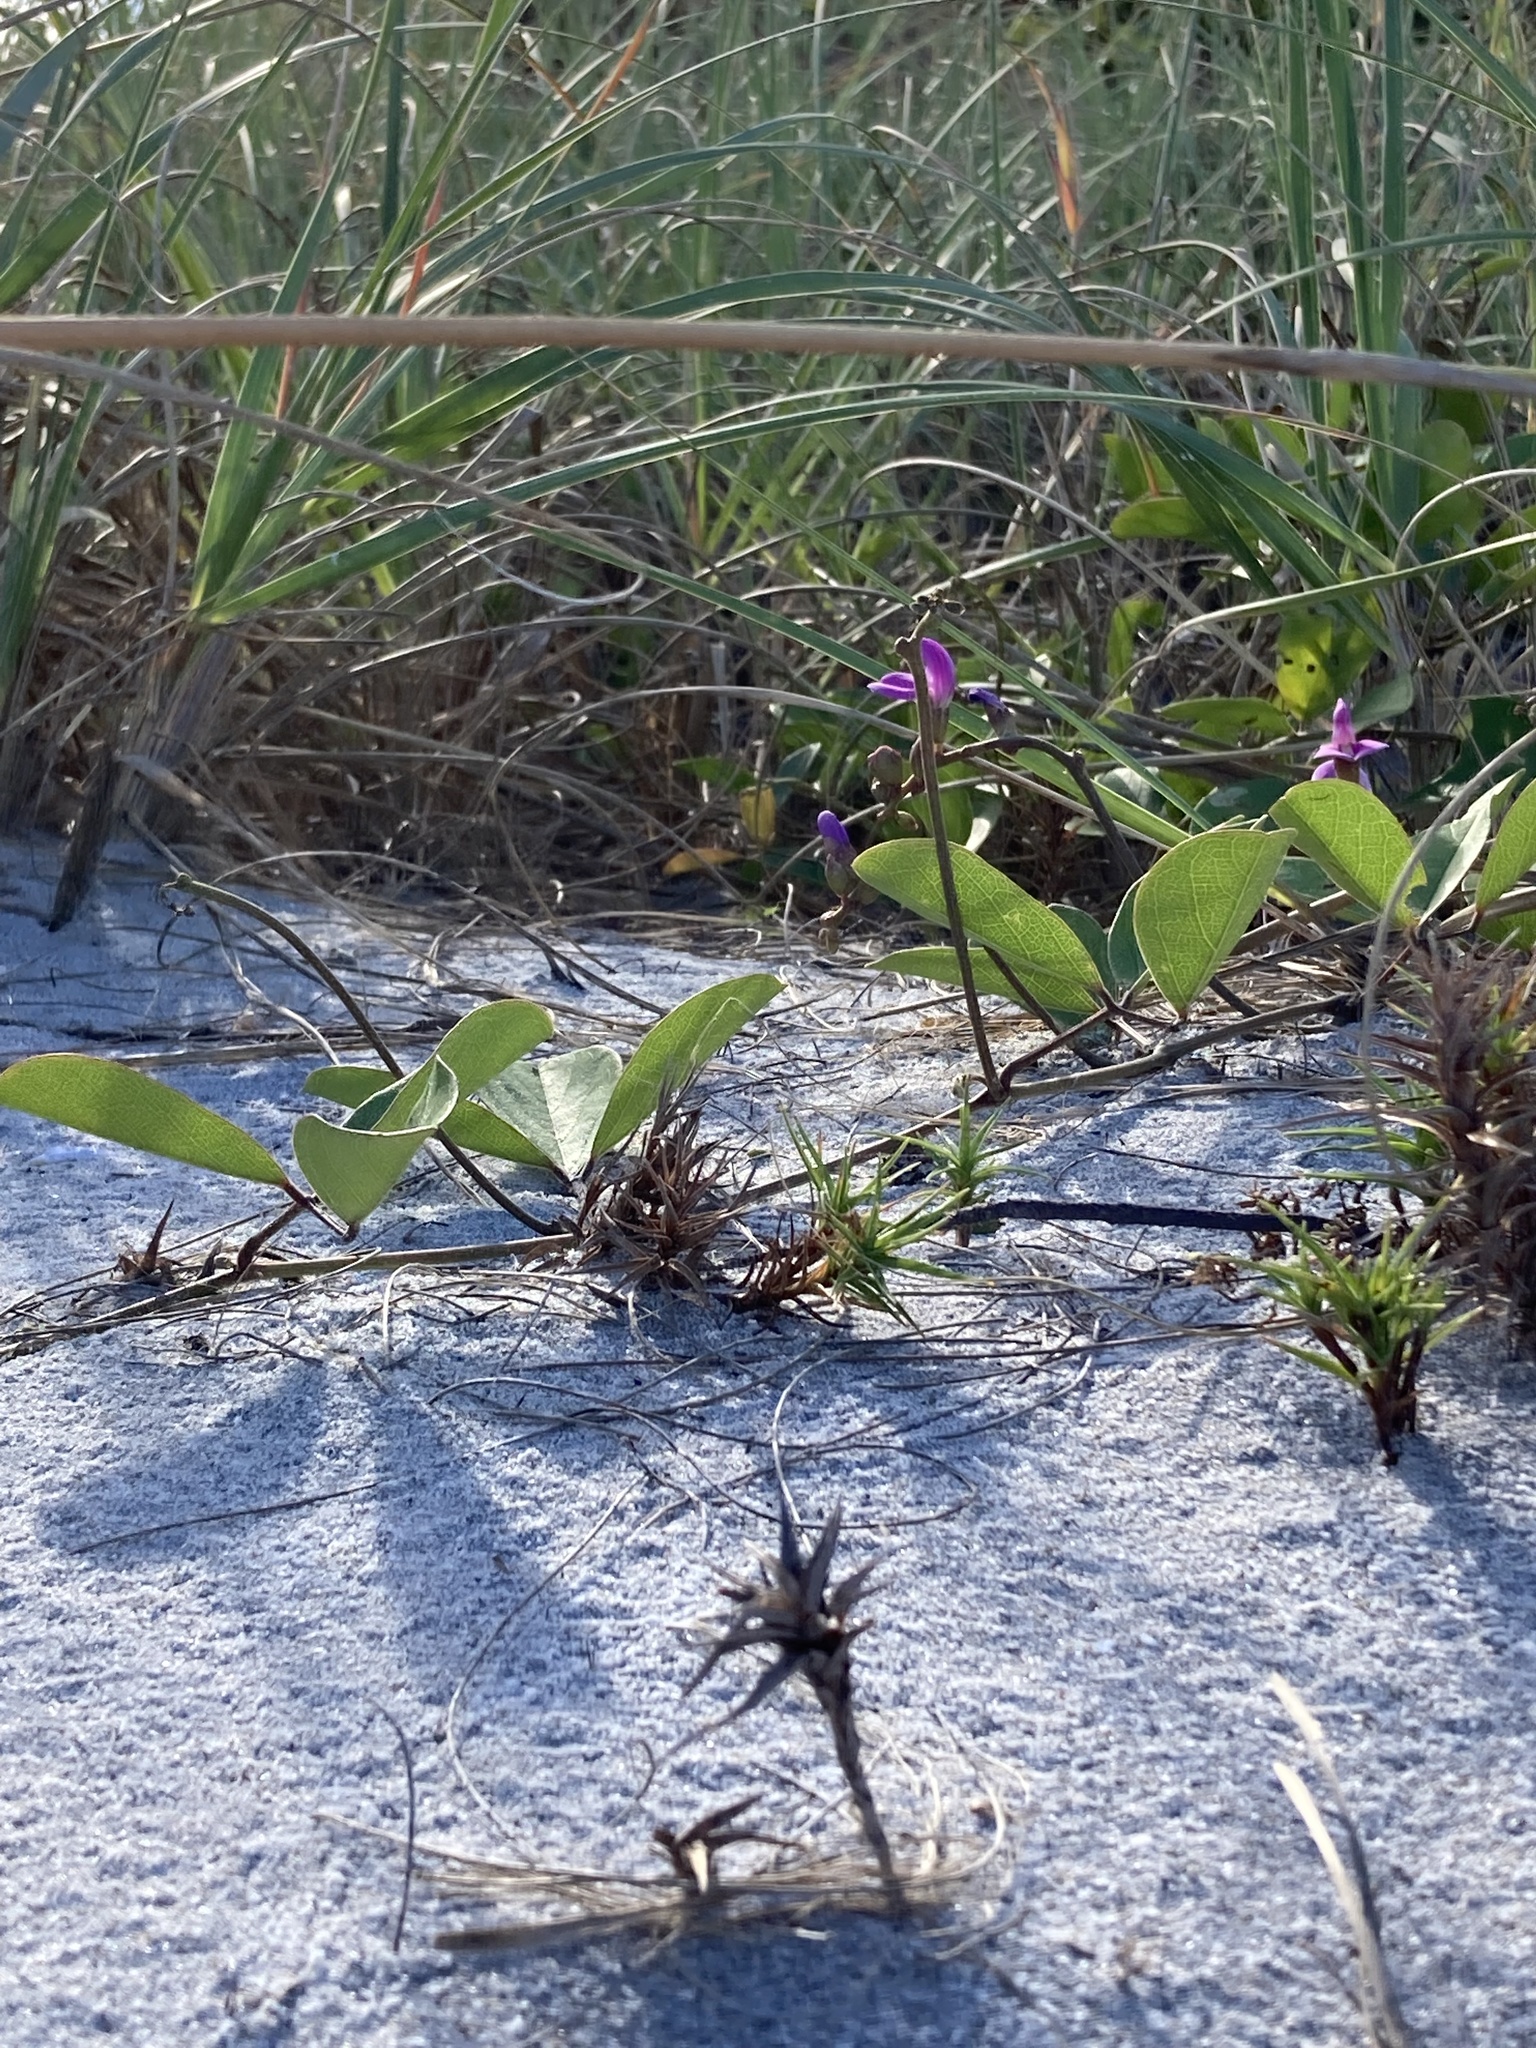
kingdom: Plantae
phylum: Tracheophyta
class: Magnoliopsida
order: Fabales
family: Fabaceae
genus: Canavalia
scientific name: Canavalia rosea
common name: Beach-bean
